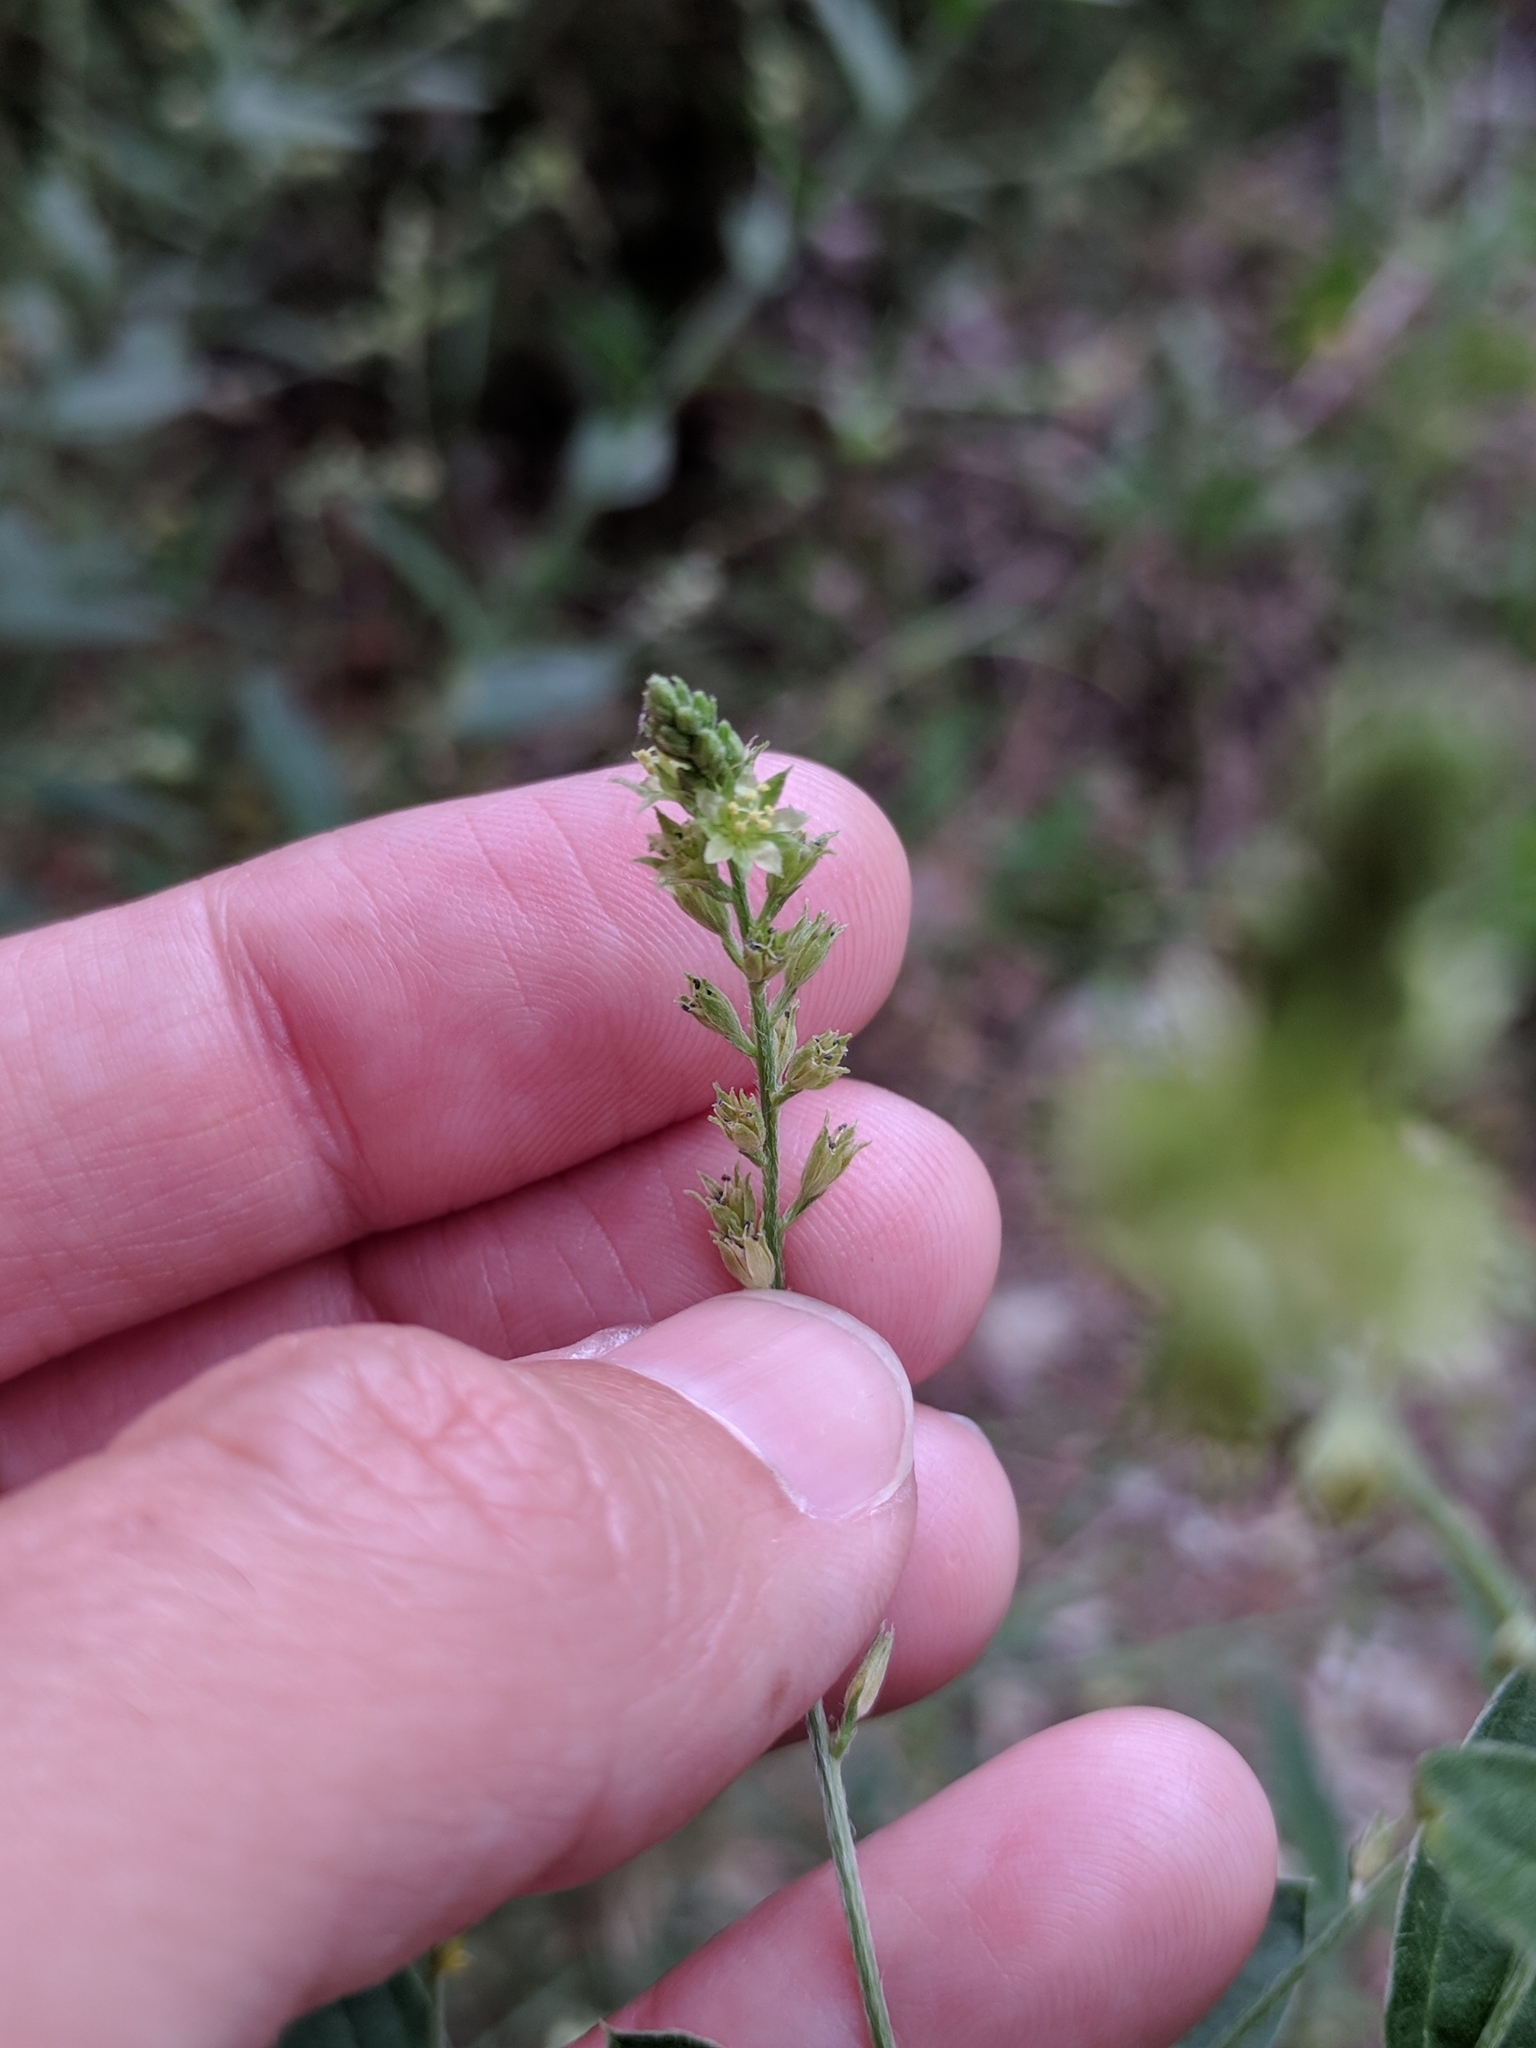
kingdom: Plantae
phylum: Tracheophyta
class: Magnoliopsida
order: Malpighiales
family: Euphorbiaceae
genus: Ditaxis
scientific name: Ditaxis mercurialina
